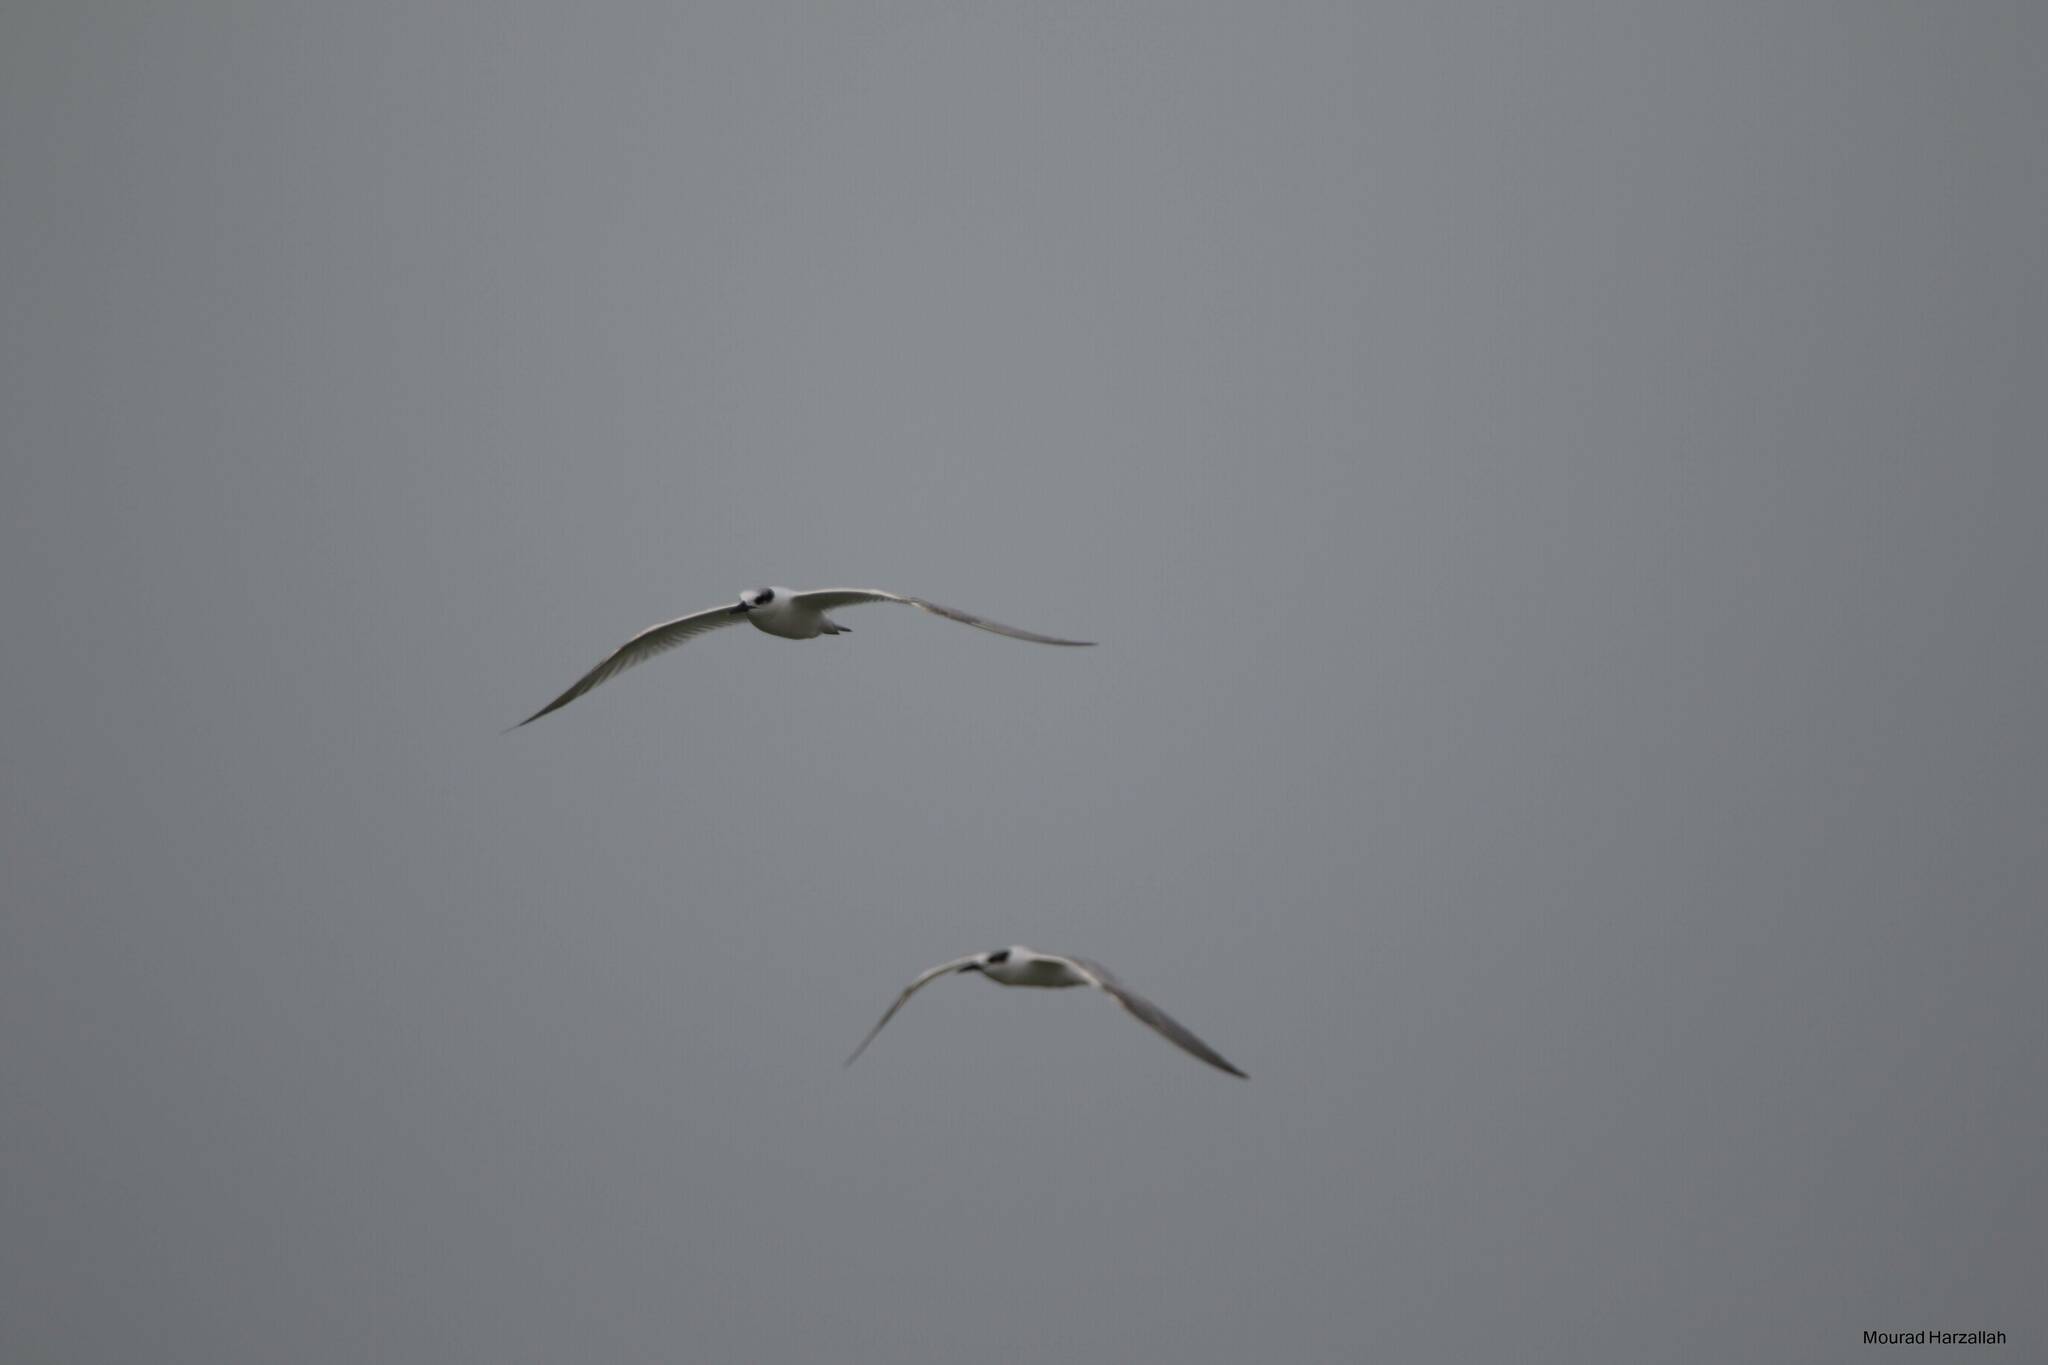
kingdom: Animalia
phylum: Chordata
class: Aves
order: Charadriiformes
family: Laridae
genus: Thalasseus
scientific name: Thalasseus sandvicensis
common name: Sandwich tern
